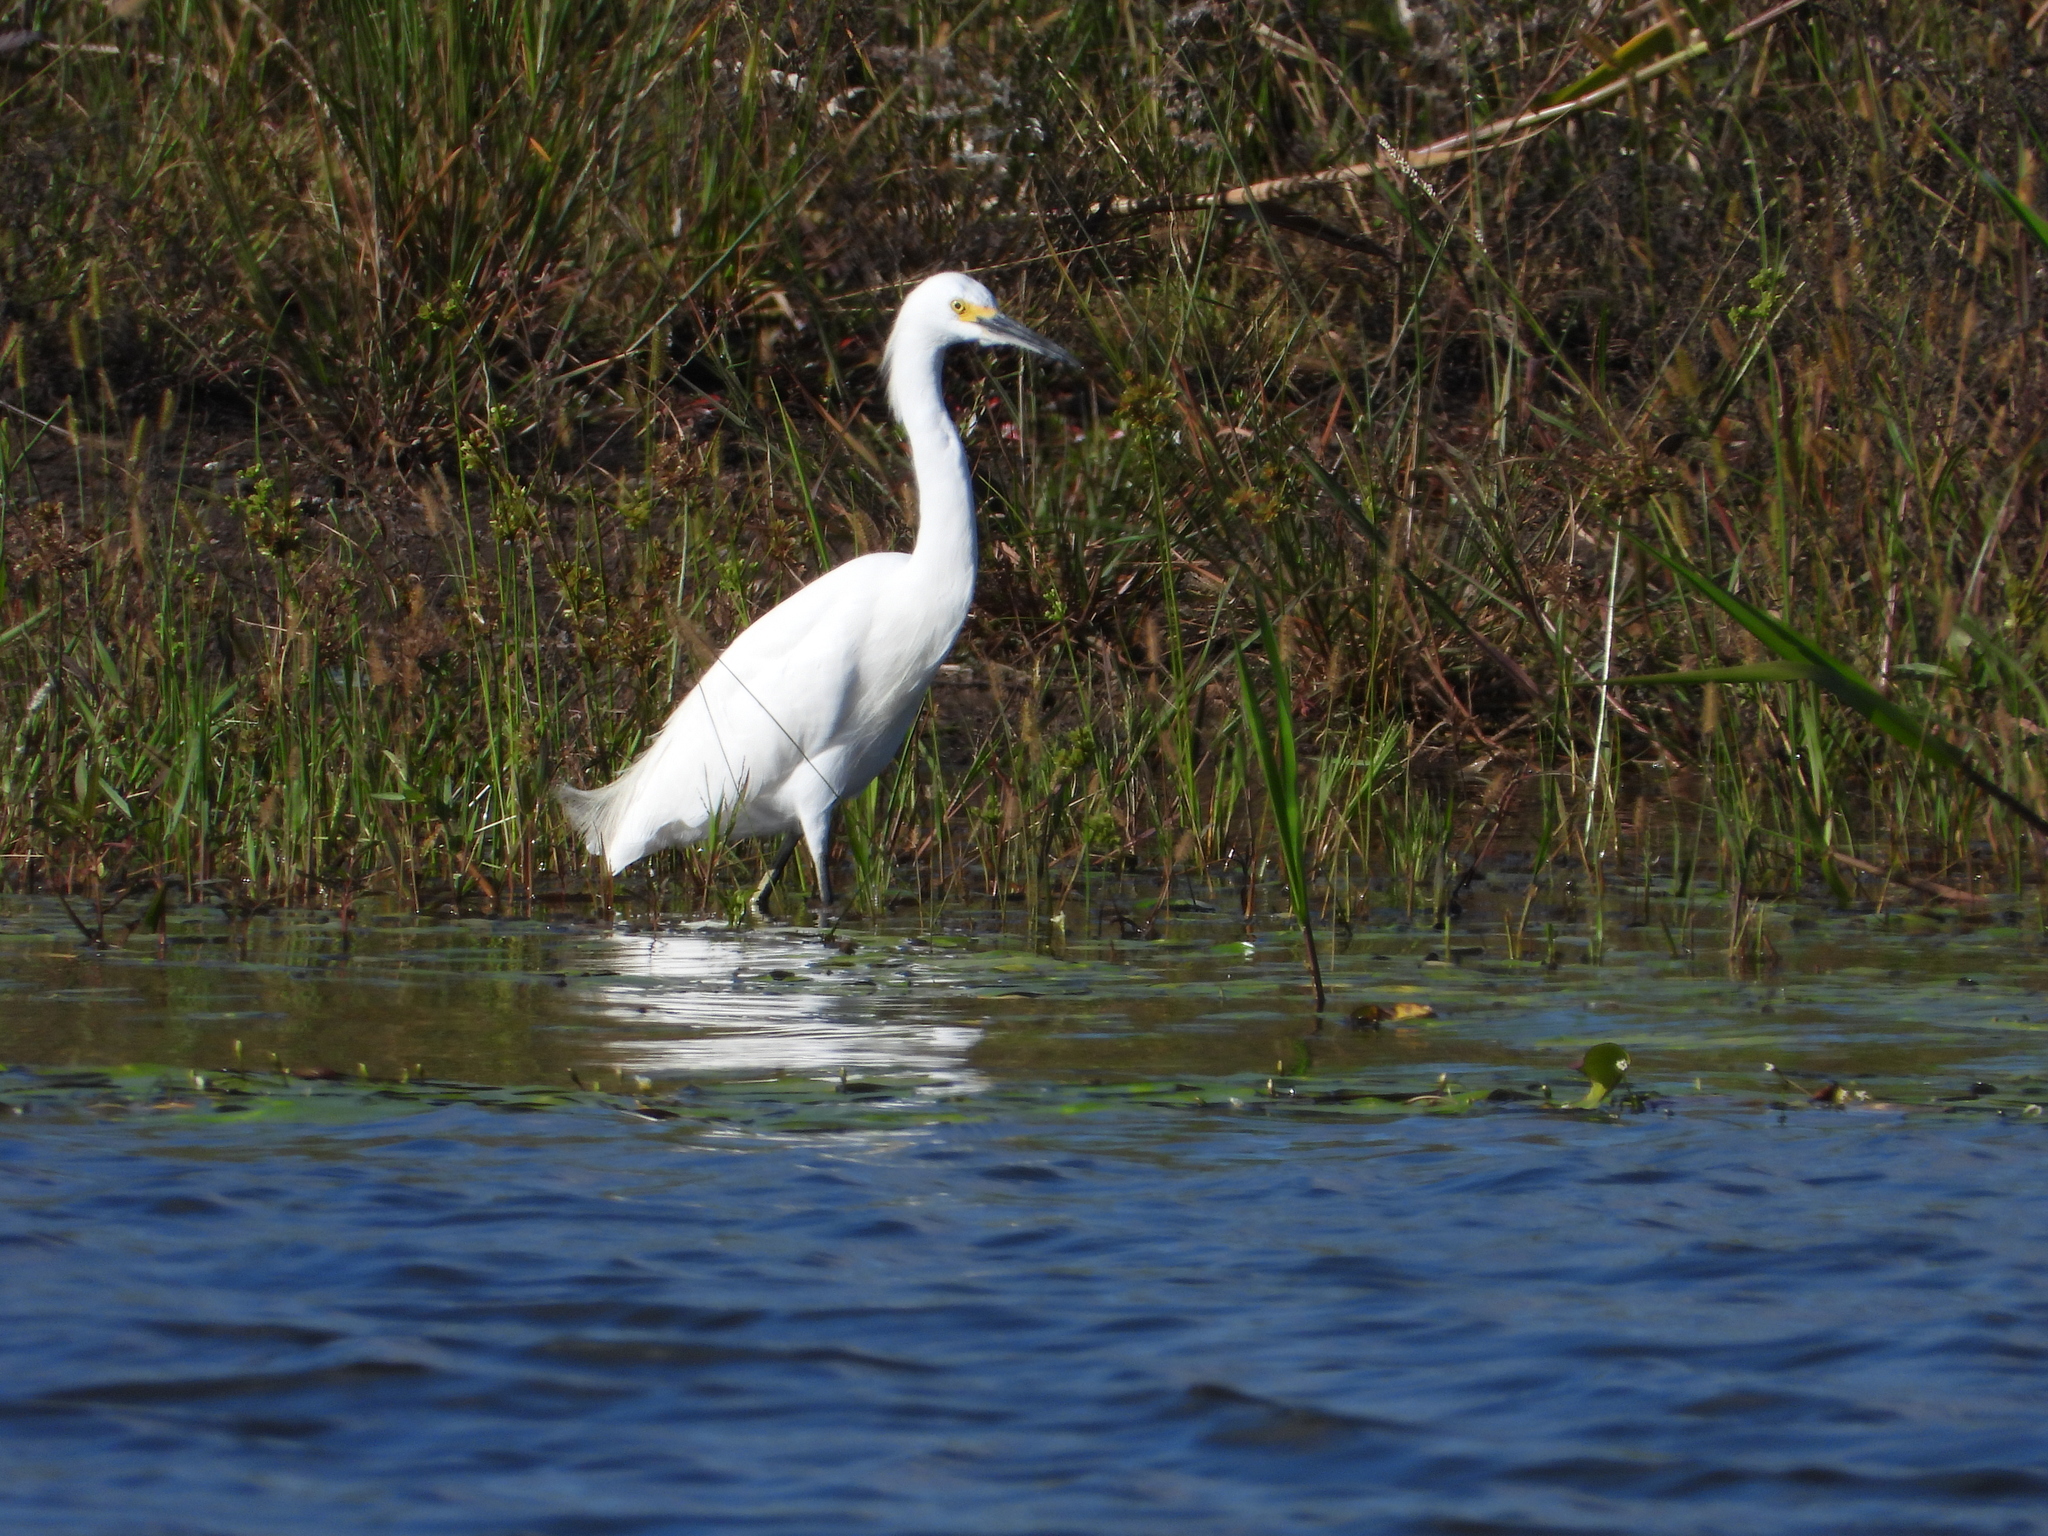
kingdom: Animalia
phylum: Chordata
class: Aves
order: Pelecaniformes
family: Ardeidae
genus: Egretta
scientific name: Egretta thula
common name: Snowy egret
